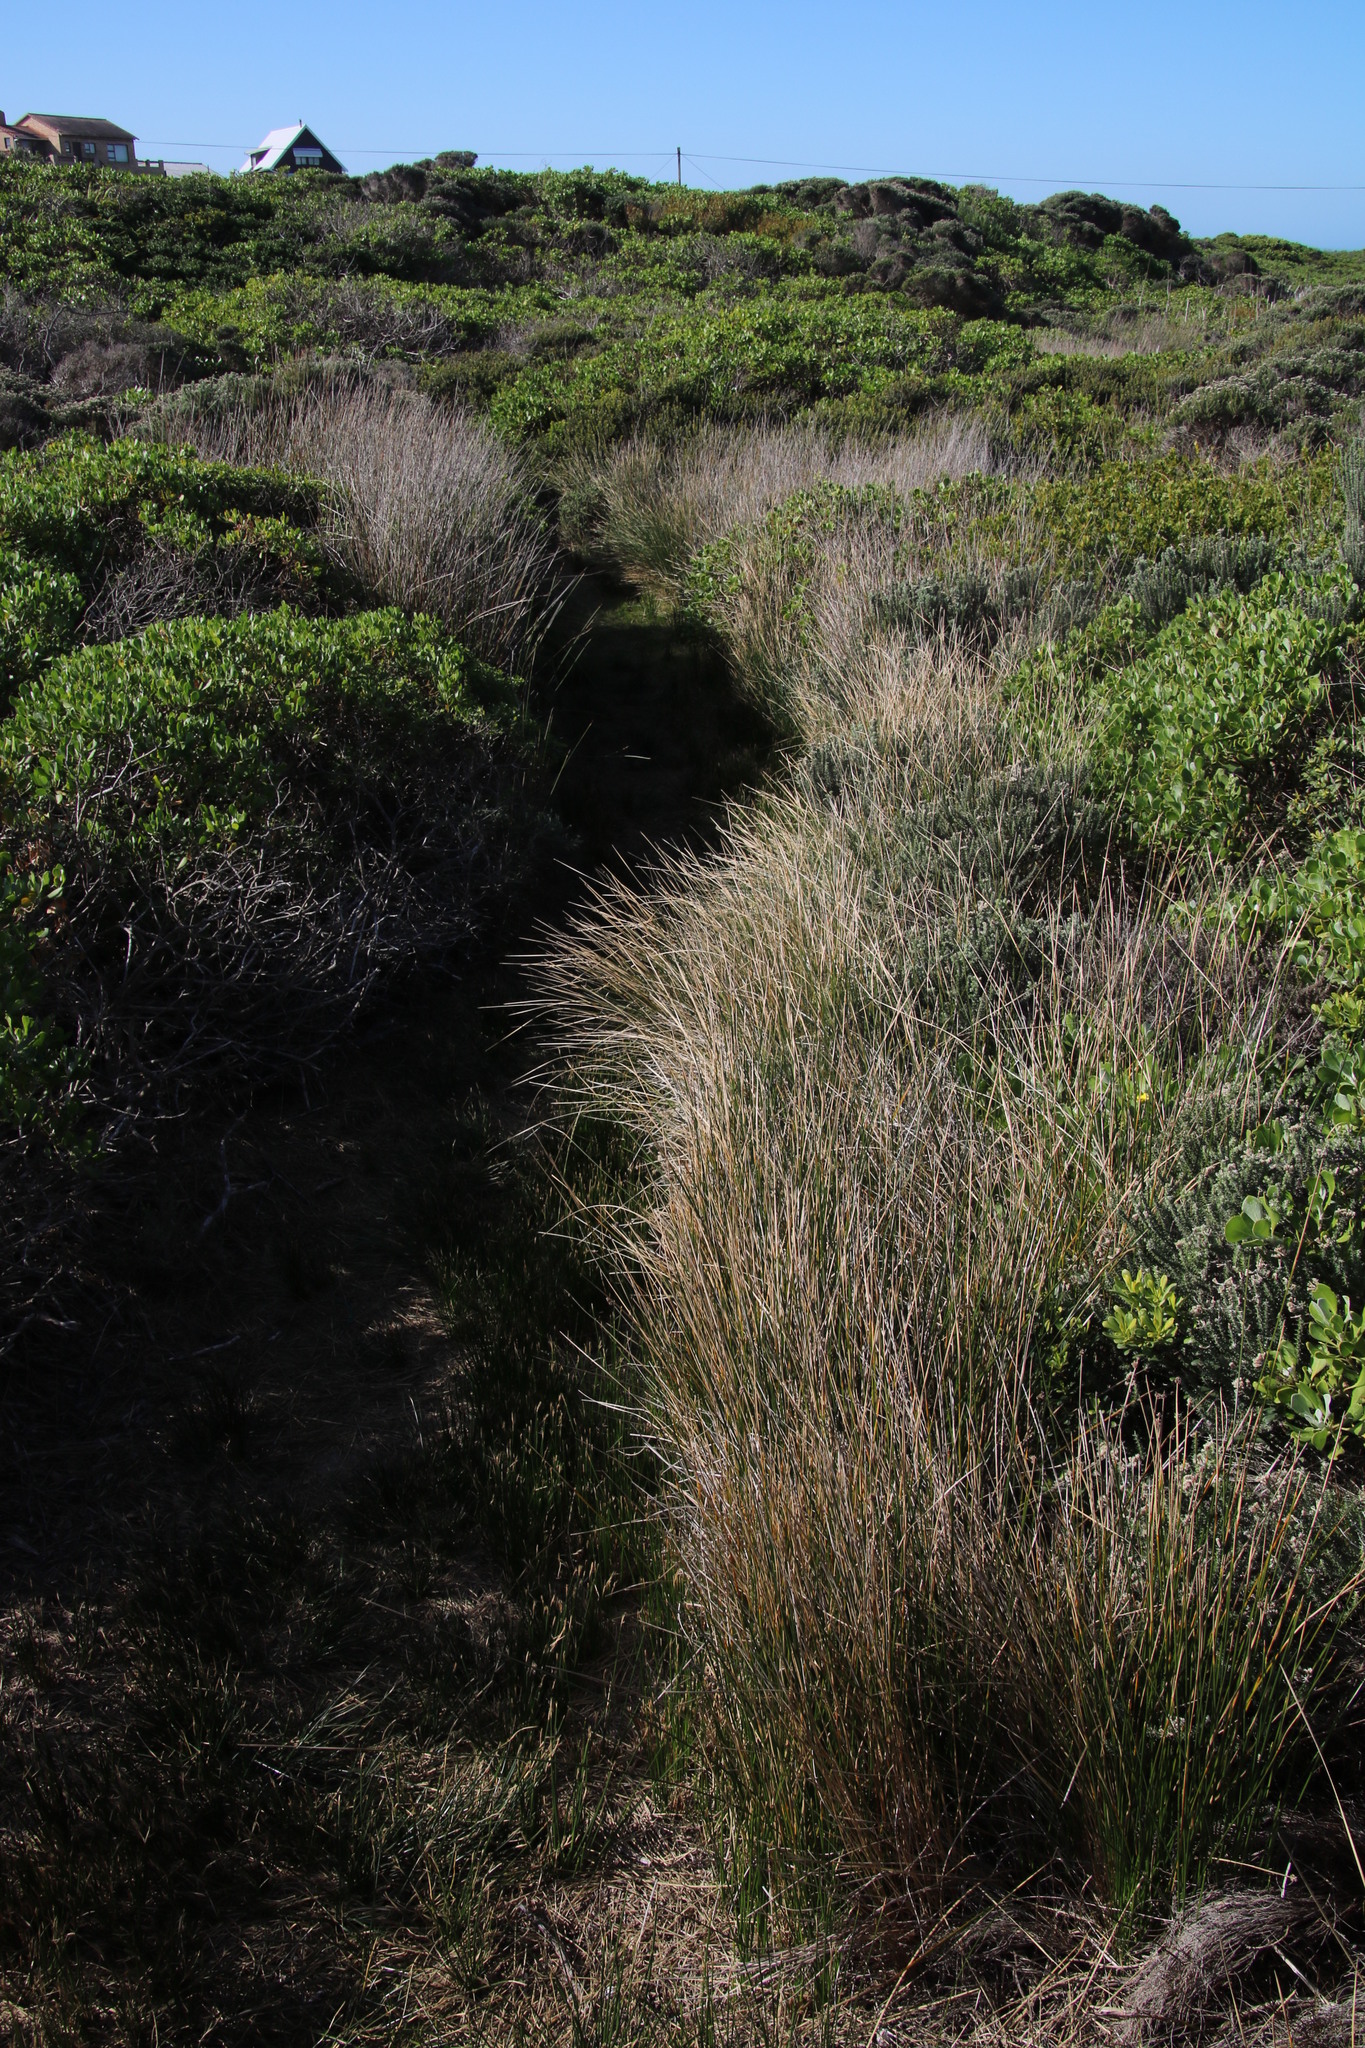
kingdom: Plantae
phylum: Tracheophyta
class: Liliopsida
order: Poales
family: Cyperaceae
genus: Ficinia
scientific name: Ficinia nodosa
